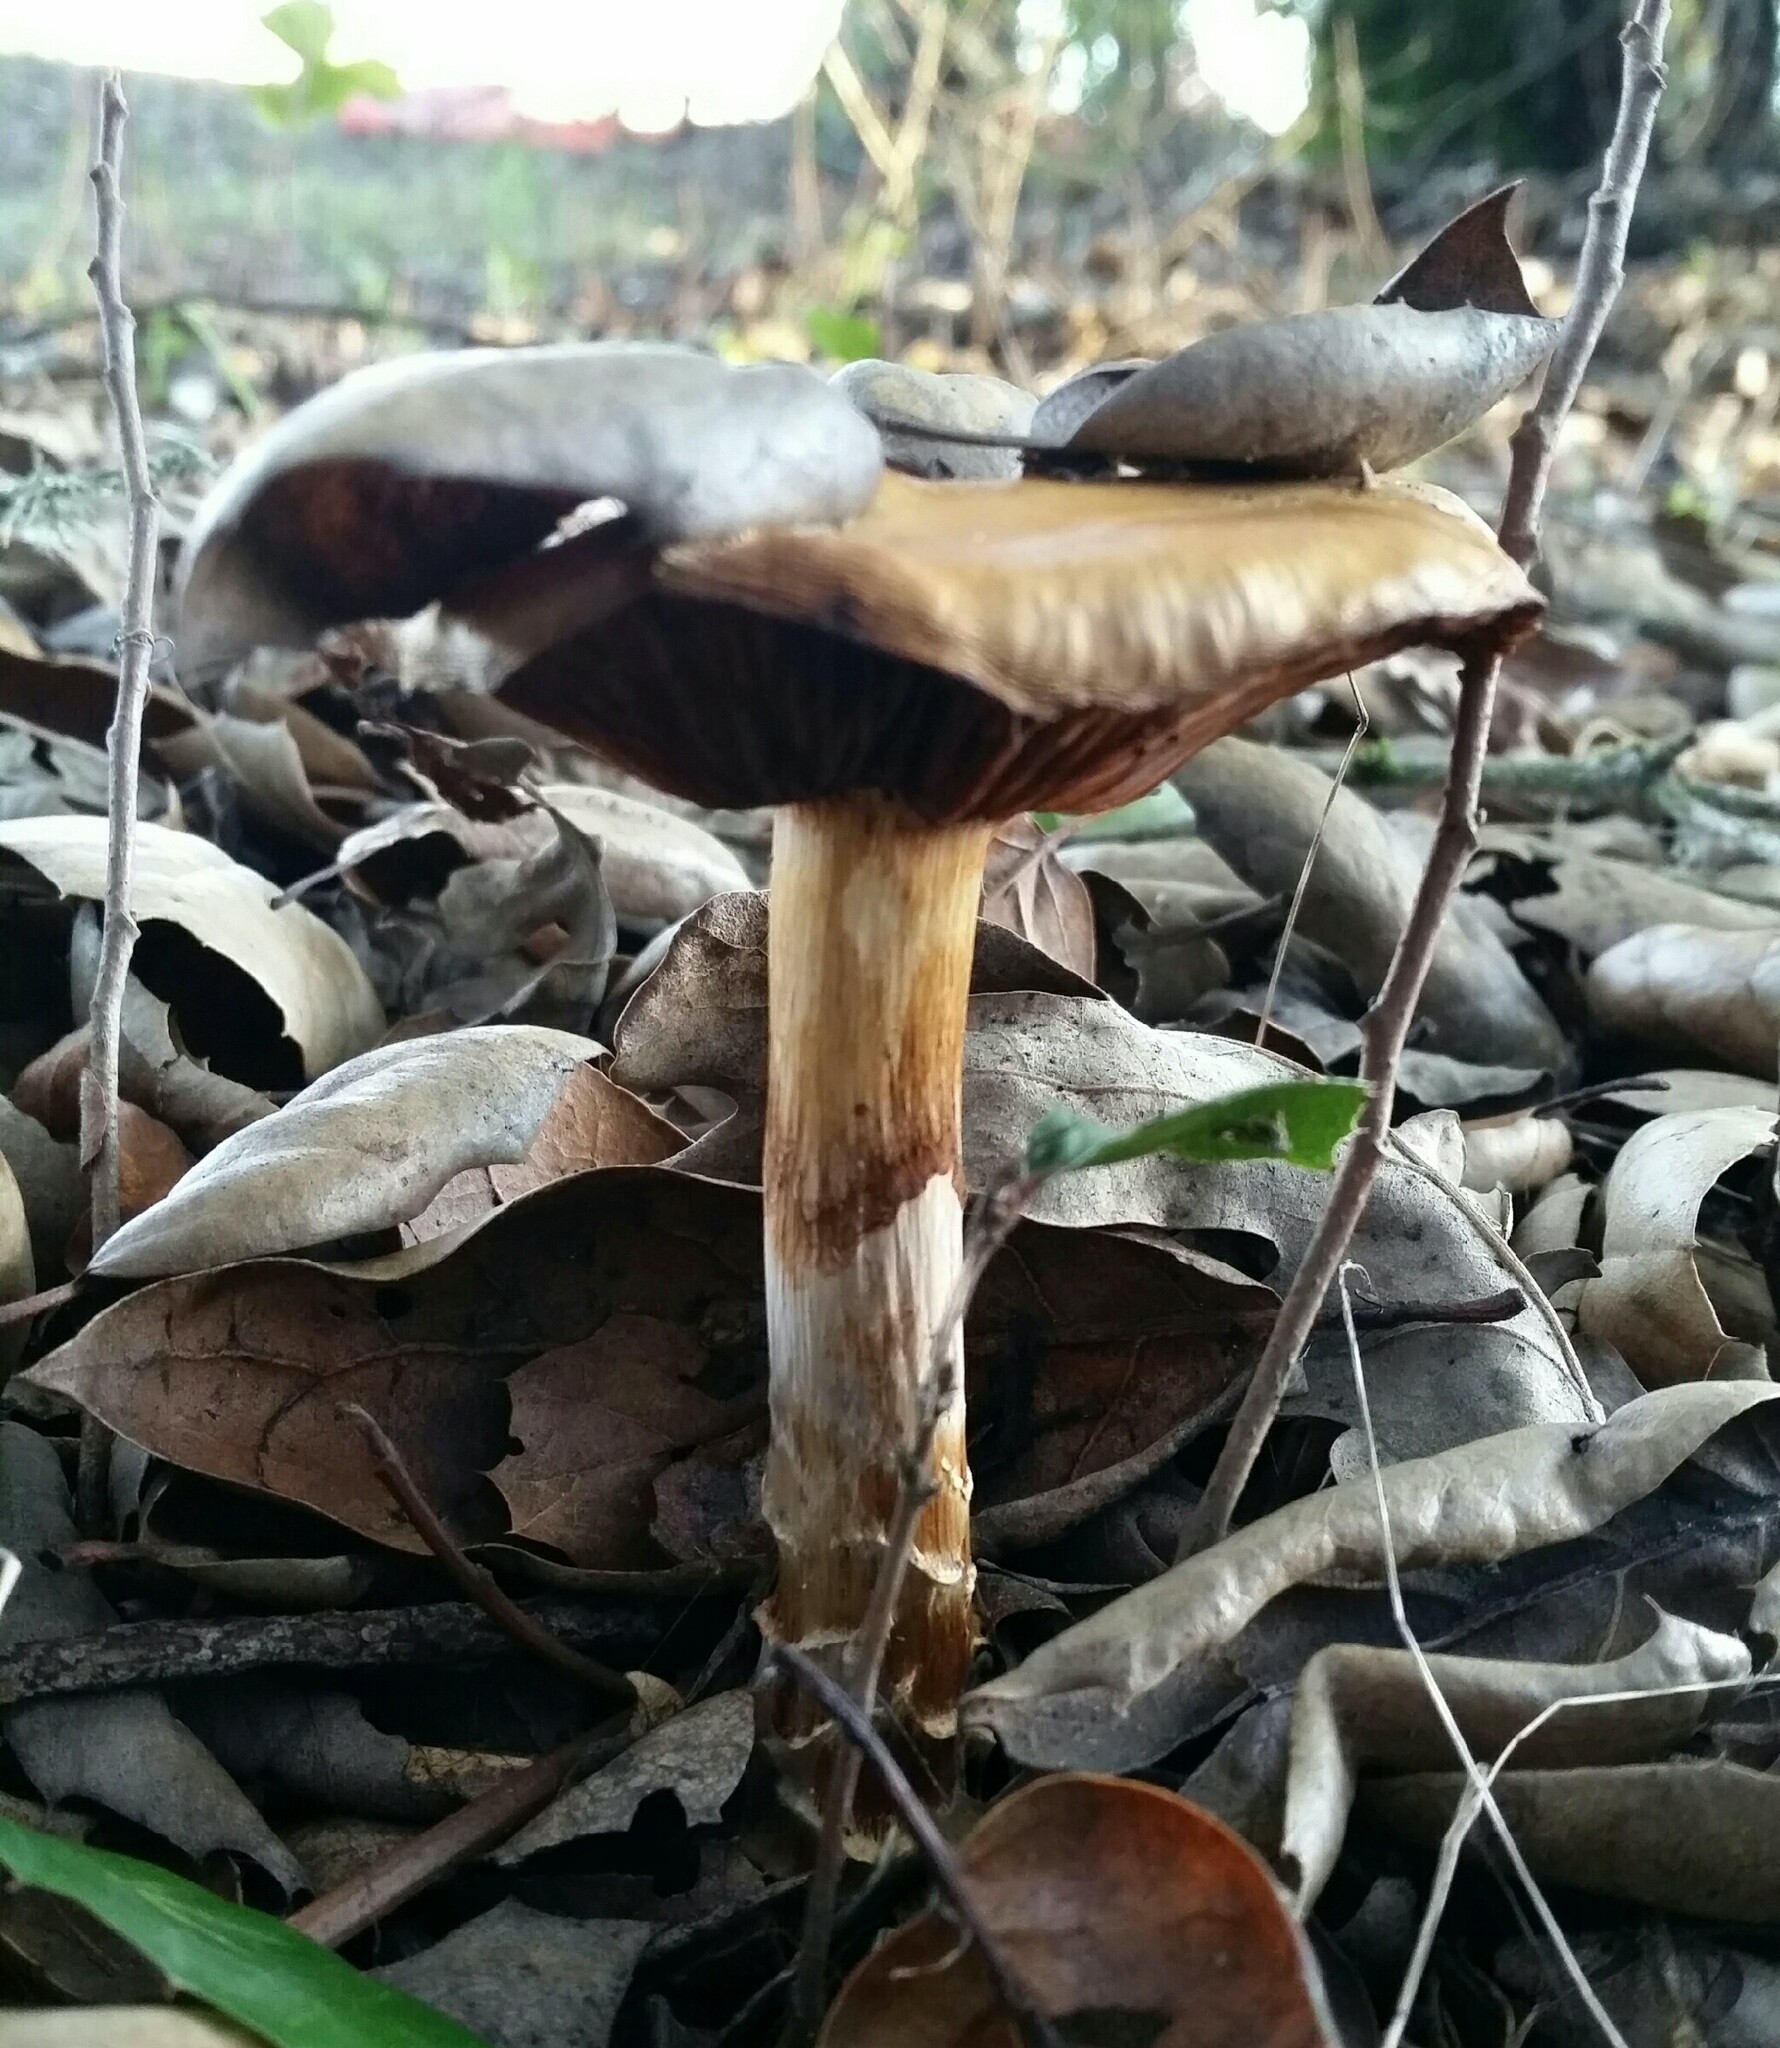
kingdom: Fungi
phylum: Basidiomycota
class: Agaricomycetes
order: Agaricales
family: Cortinariaceae
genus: Cortinarius
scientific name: Cortinarius glutinosoarmillatus
